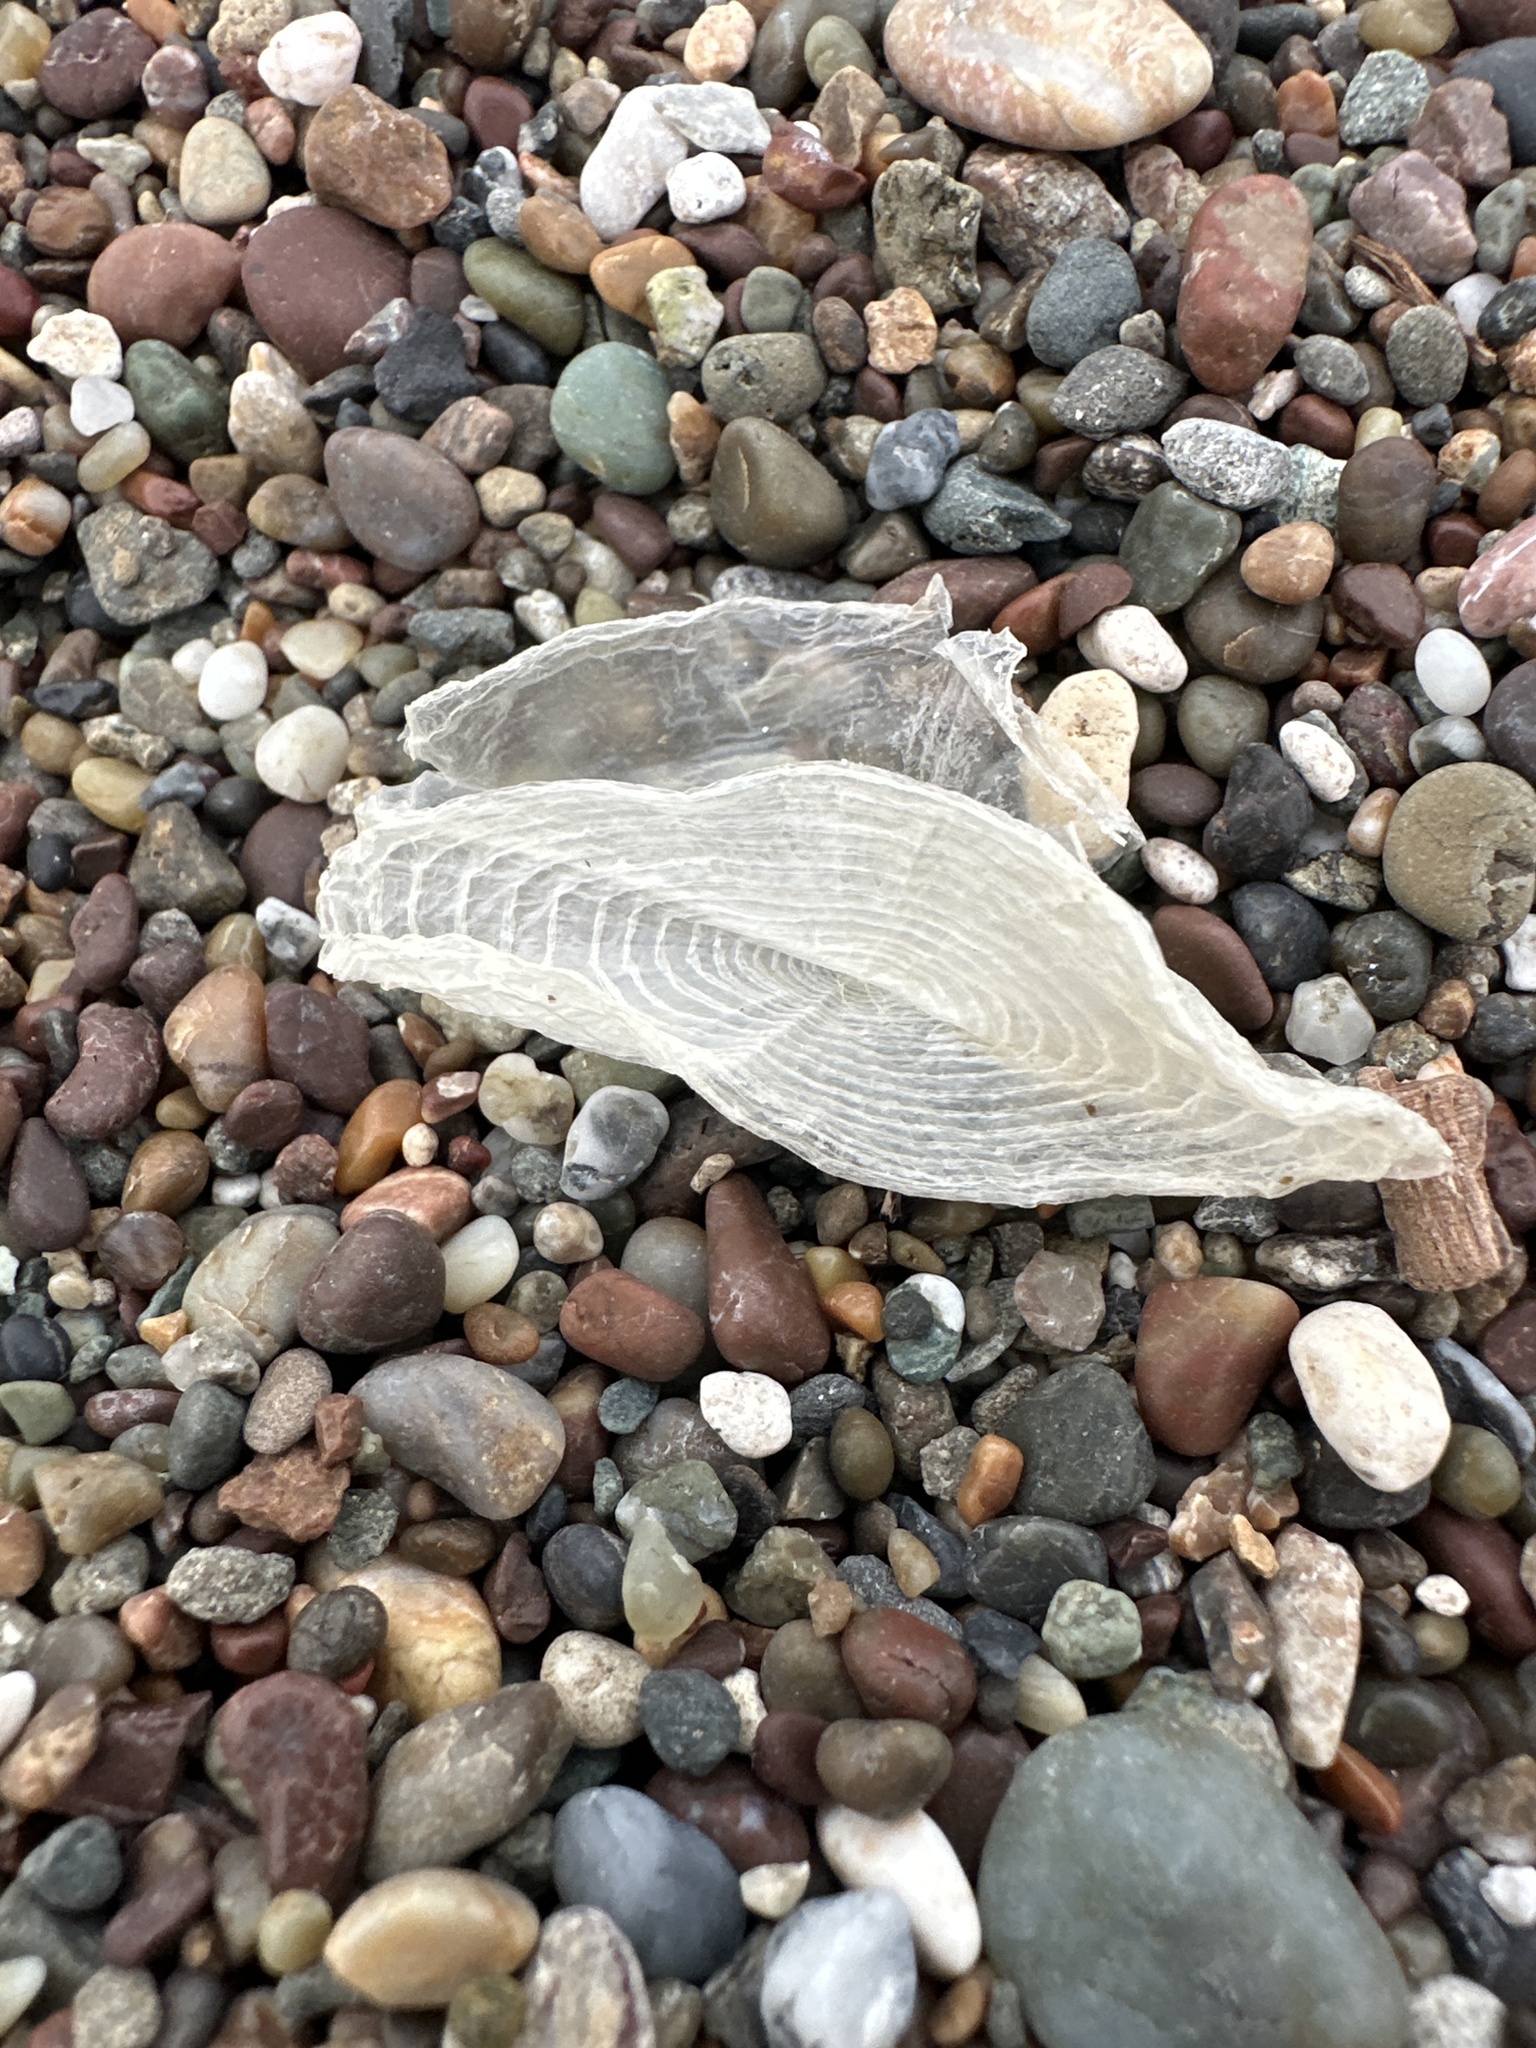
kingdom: Animalia
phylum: Cnidaria
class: Hydrozoa
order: Anthoathecata
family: Porpitidae
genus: Velella
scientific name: Velella velella
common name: By-the-wind-sailor
